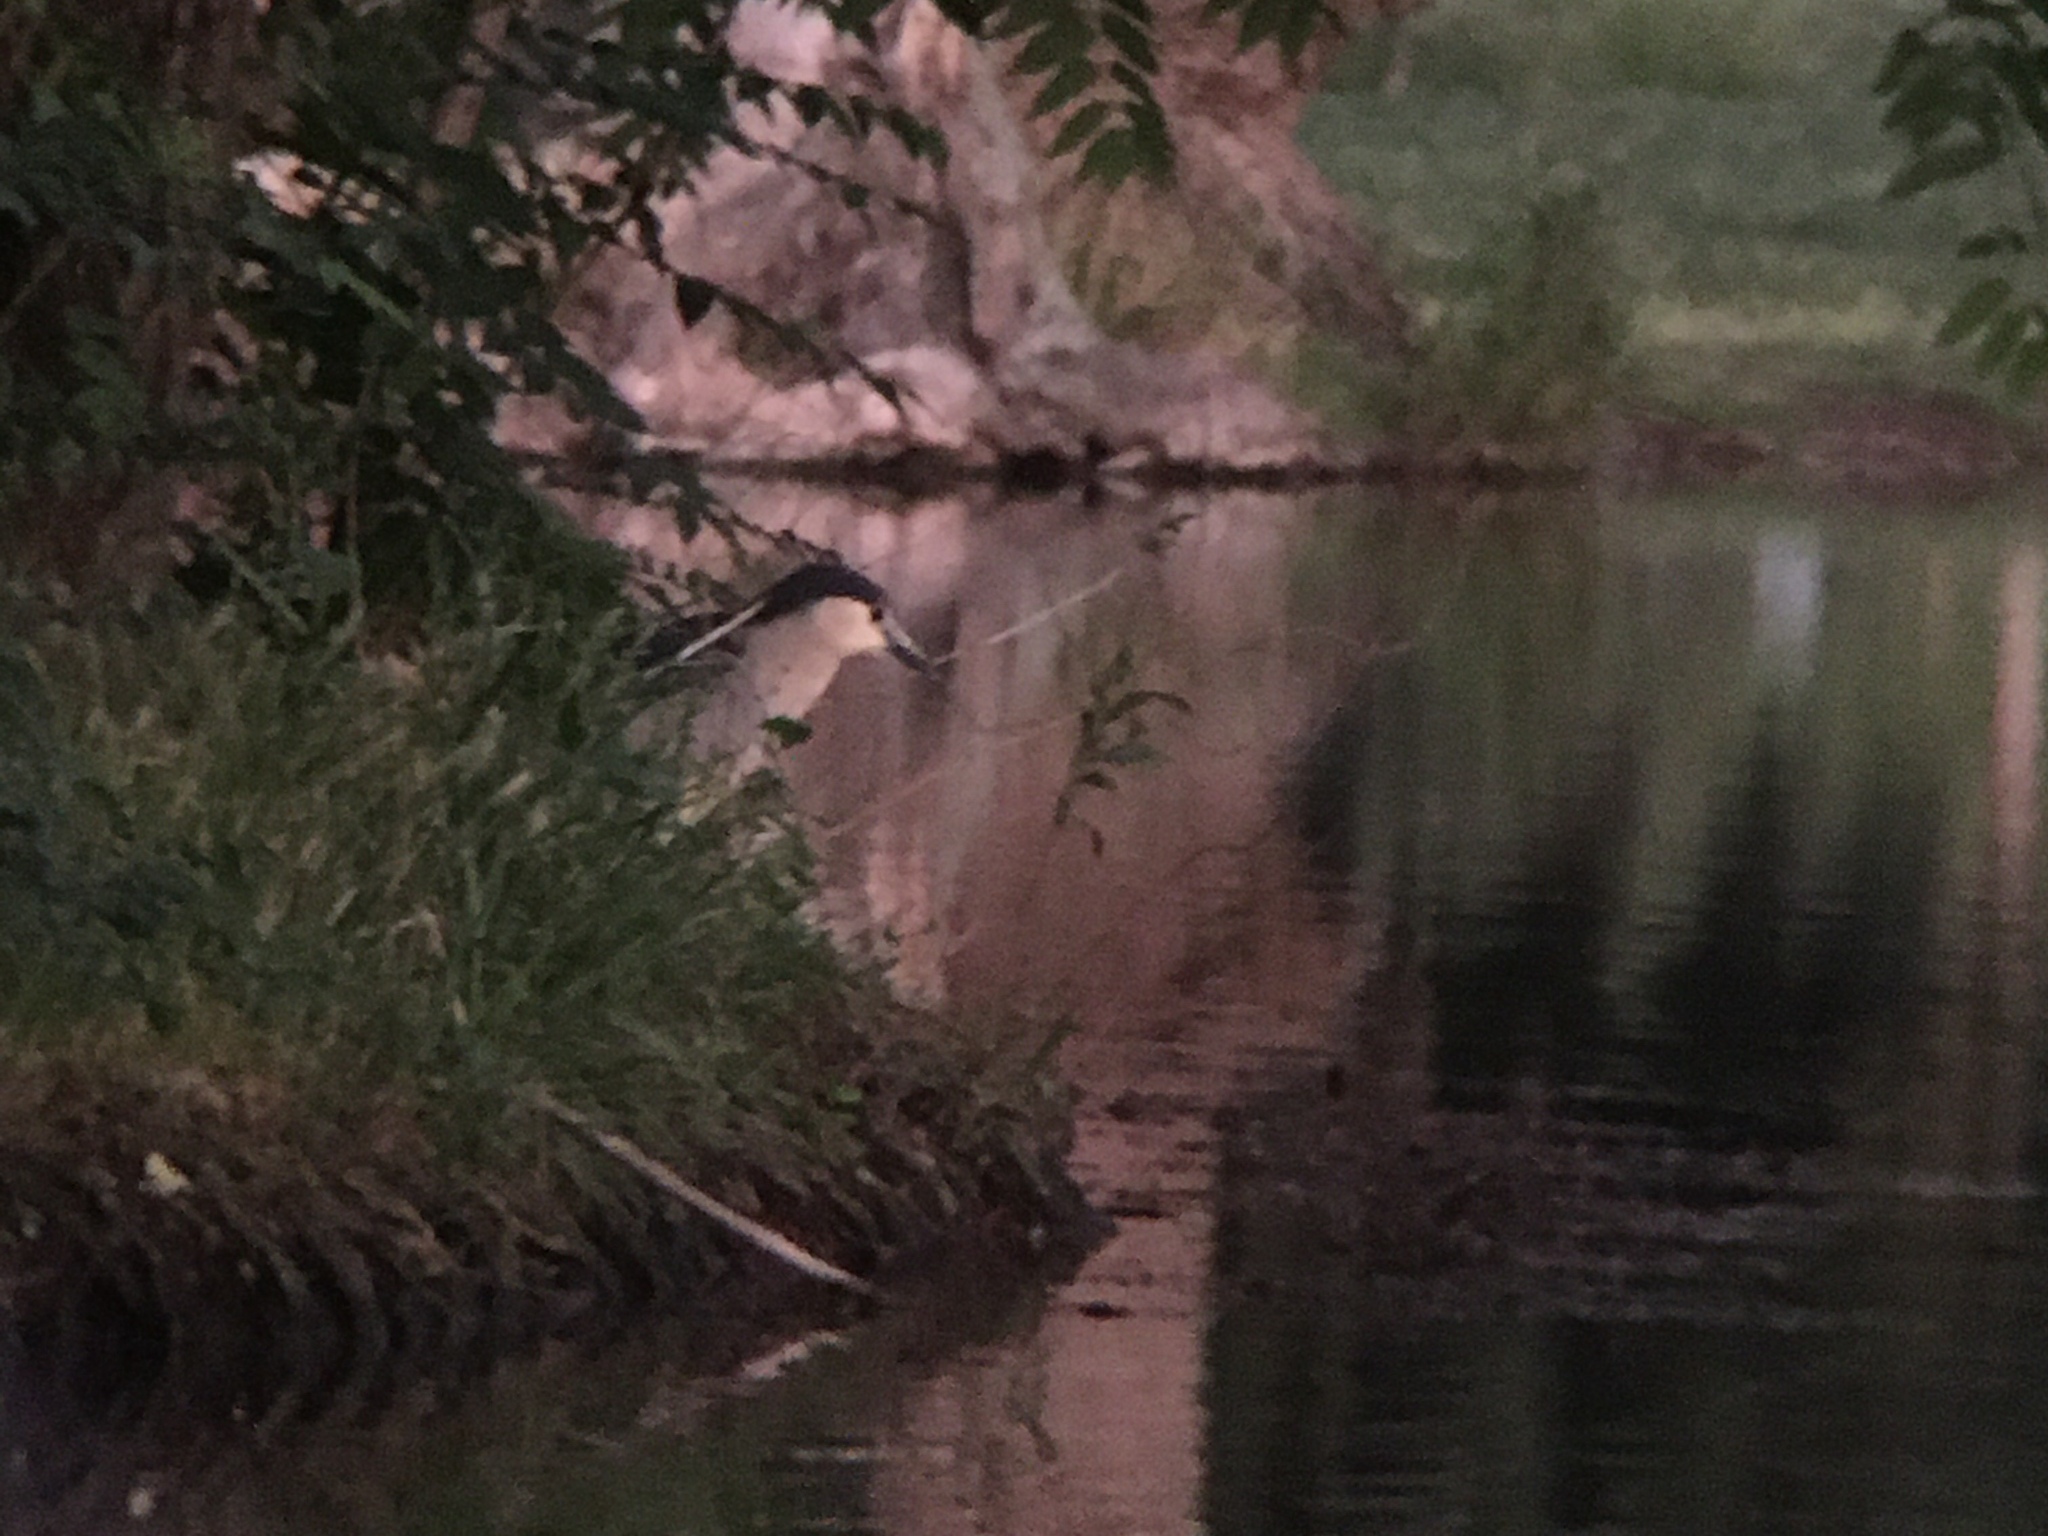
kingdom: Animalia
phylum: Chordata
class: Aves
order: Pelecaniformes
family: Ardeidae
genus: Nycticorax
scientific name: Nycticorax nycticorax
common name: Black-crowned night heron
